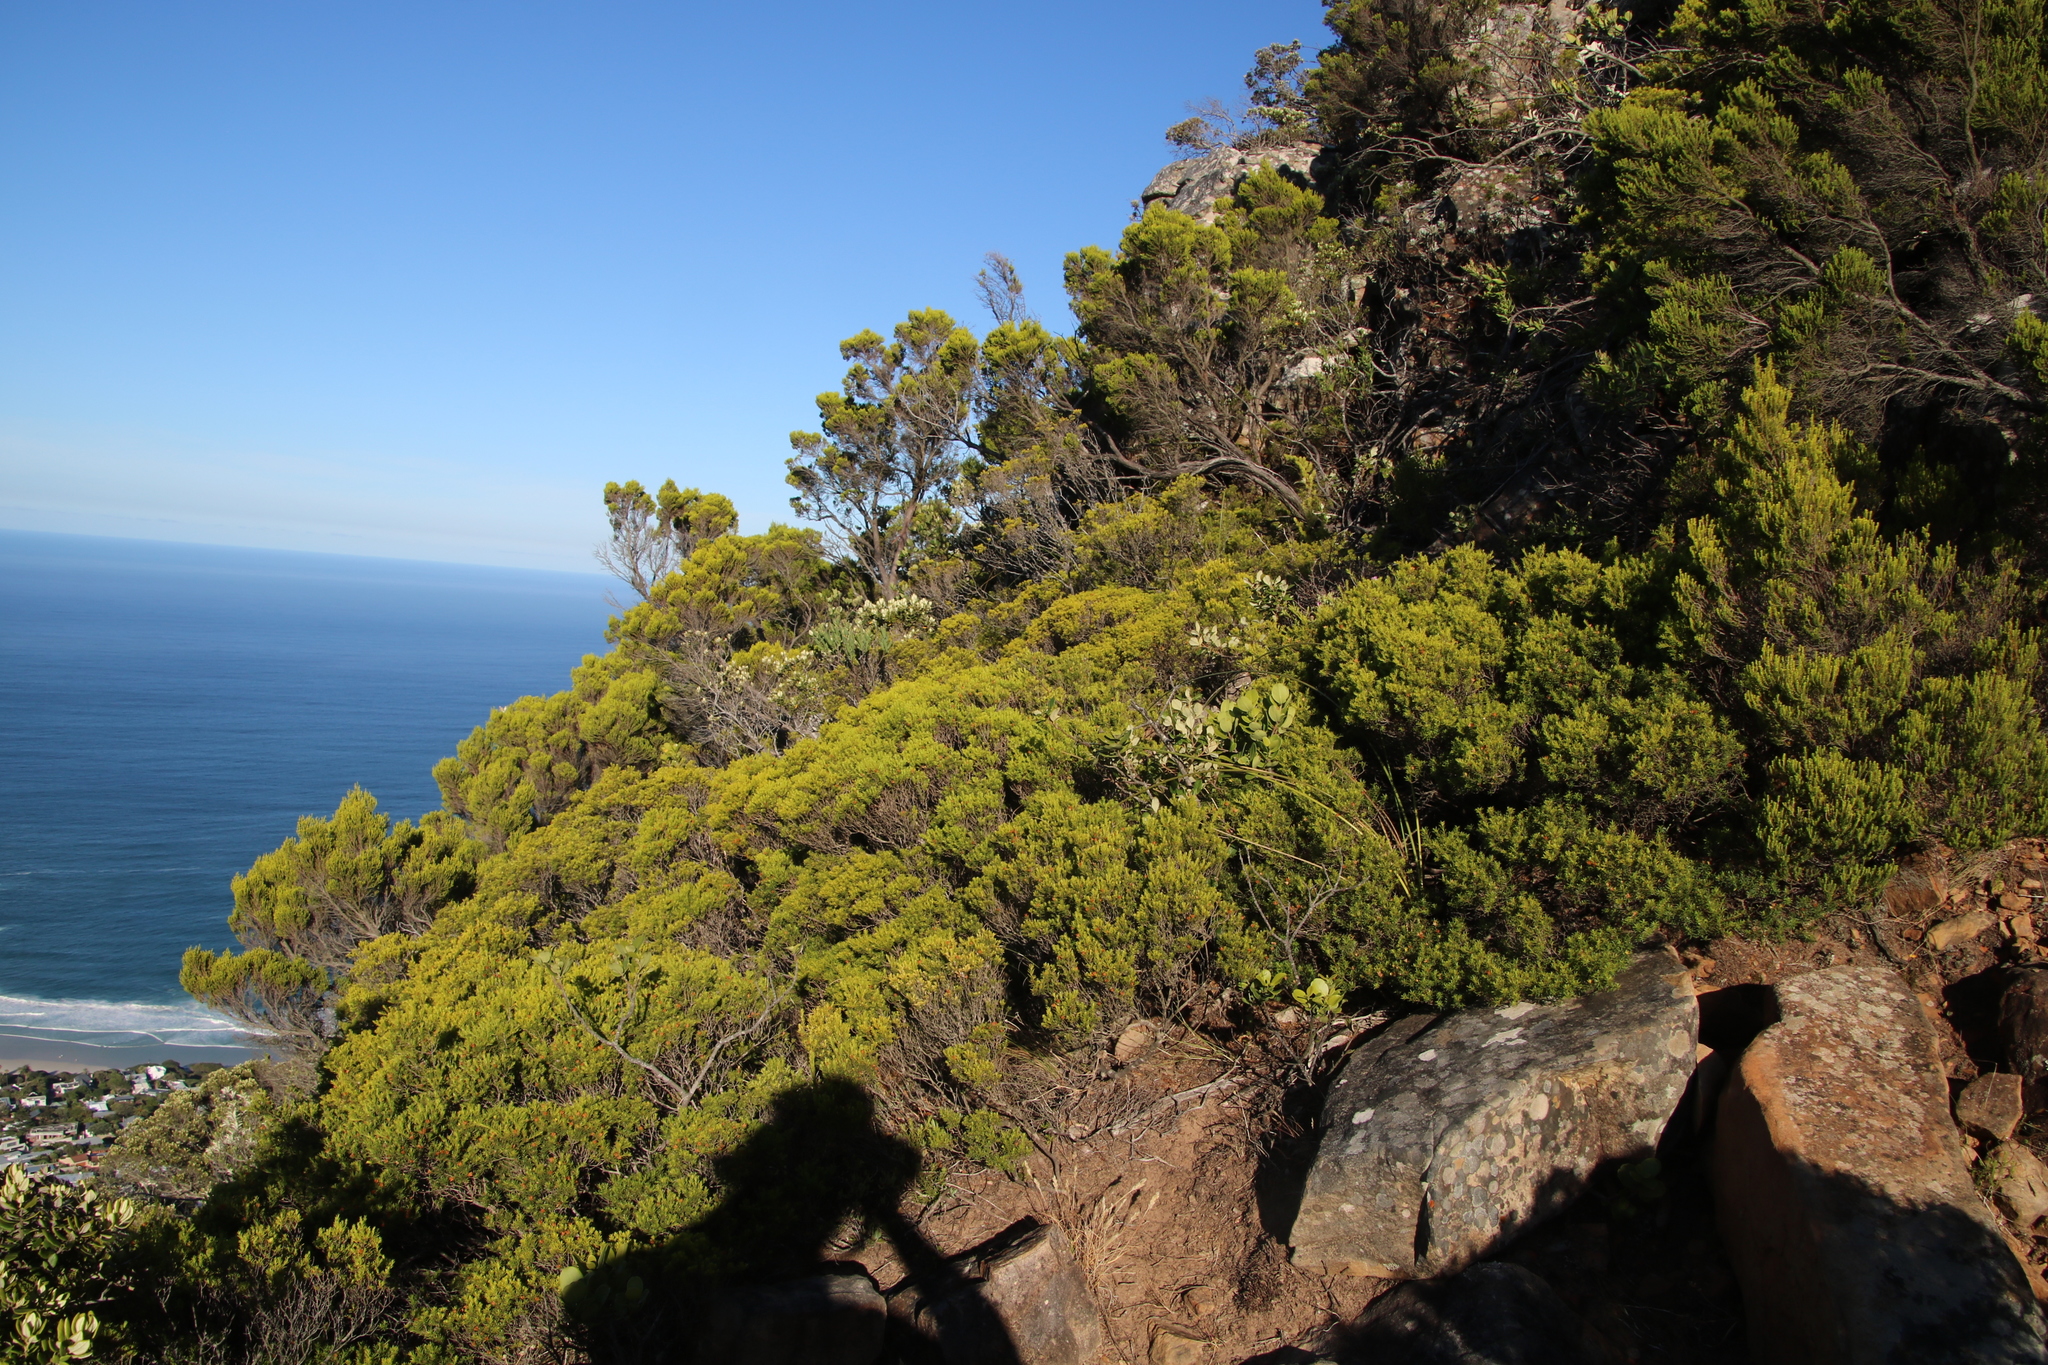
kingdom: Plantae
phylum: Tracheophyta
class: Magnoliopsida
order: Sapindales
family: Rutaceae
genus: Coleonema
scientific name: Coleonema album
